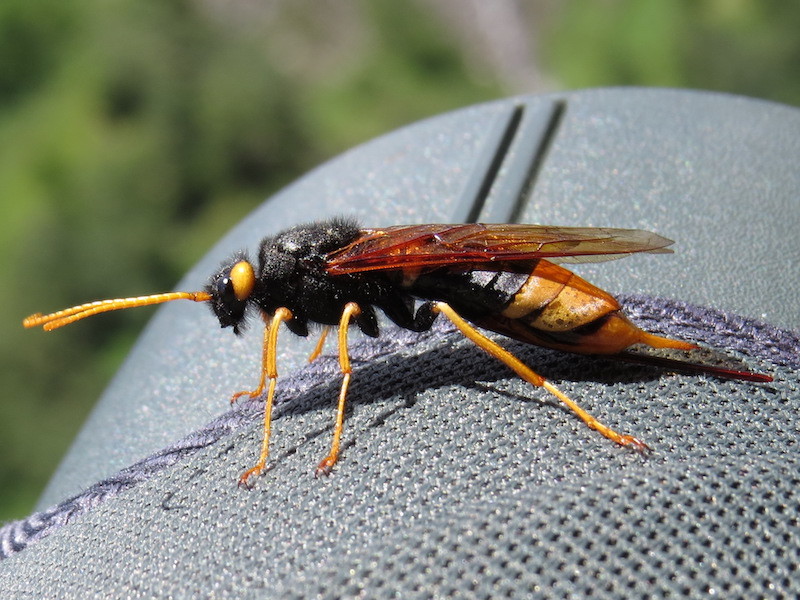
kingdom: Animalia
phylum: Arthropoda
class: Insecta
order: Hymenoptera
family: Siricidae
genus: Urocerus
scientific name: Urocerus gigas
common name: Giant woodwasp
